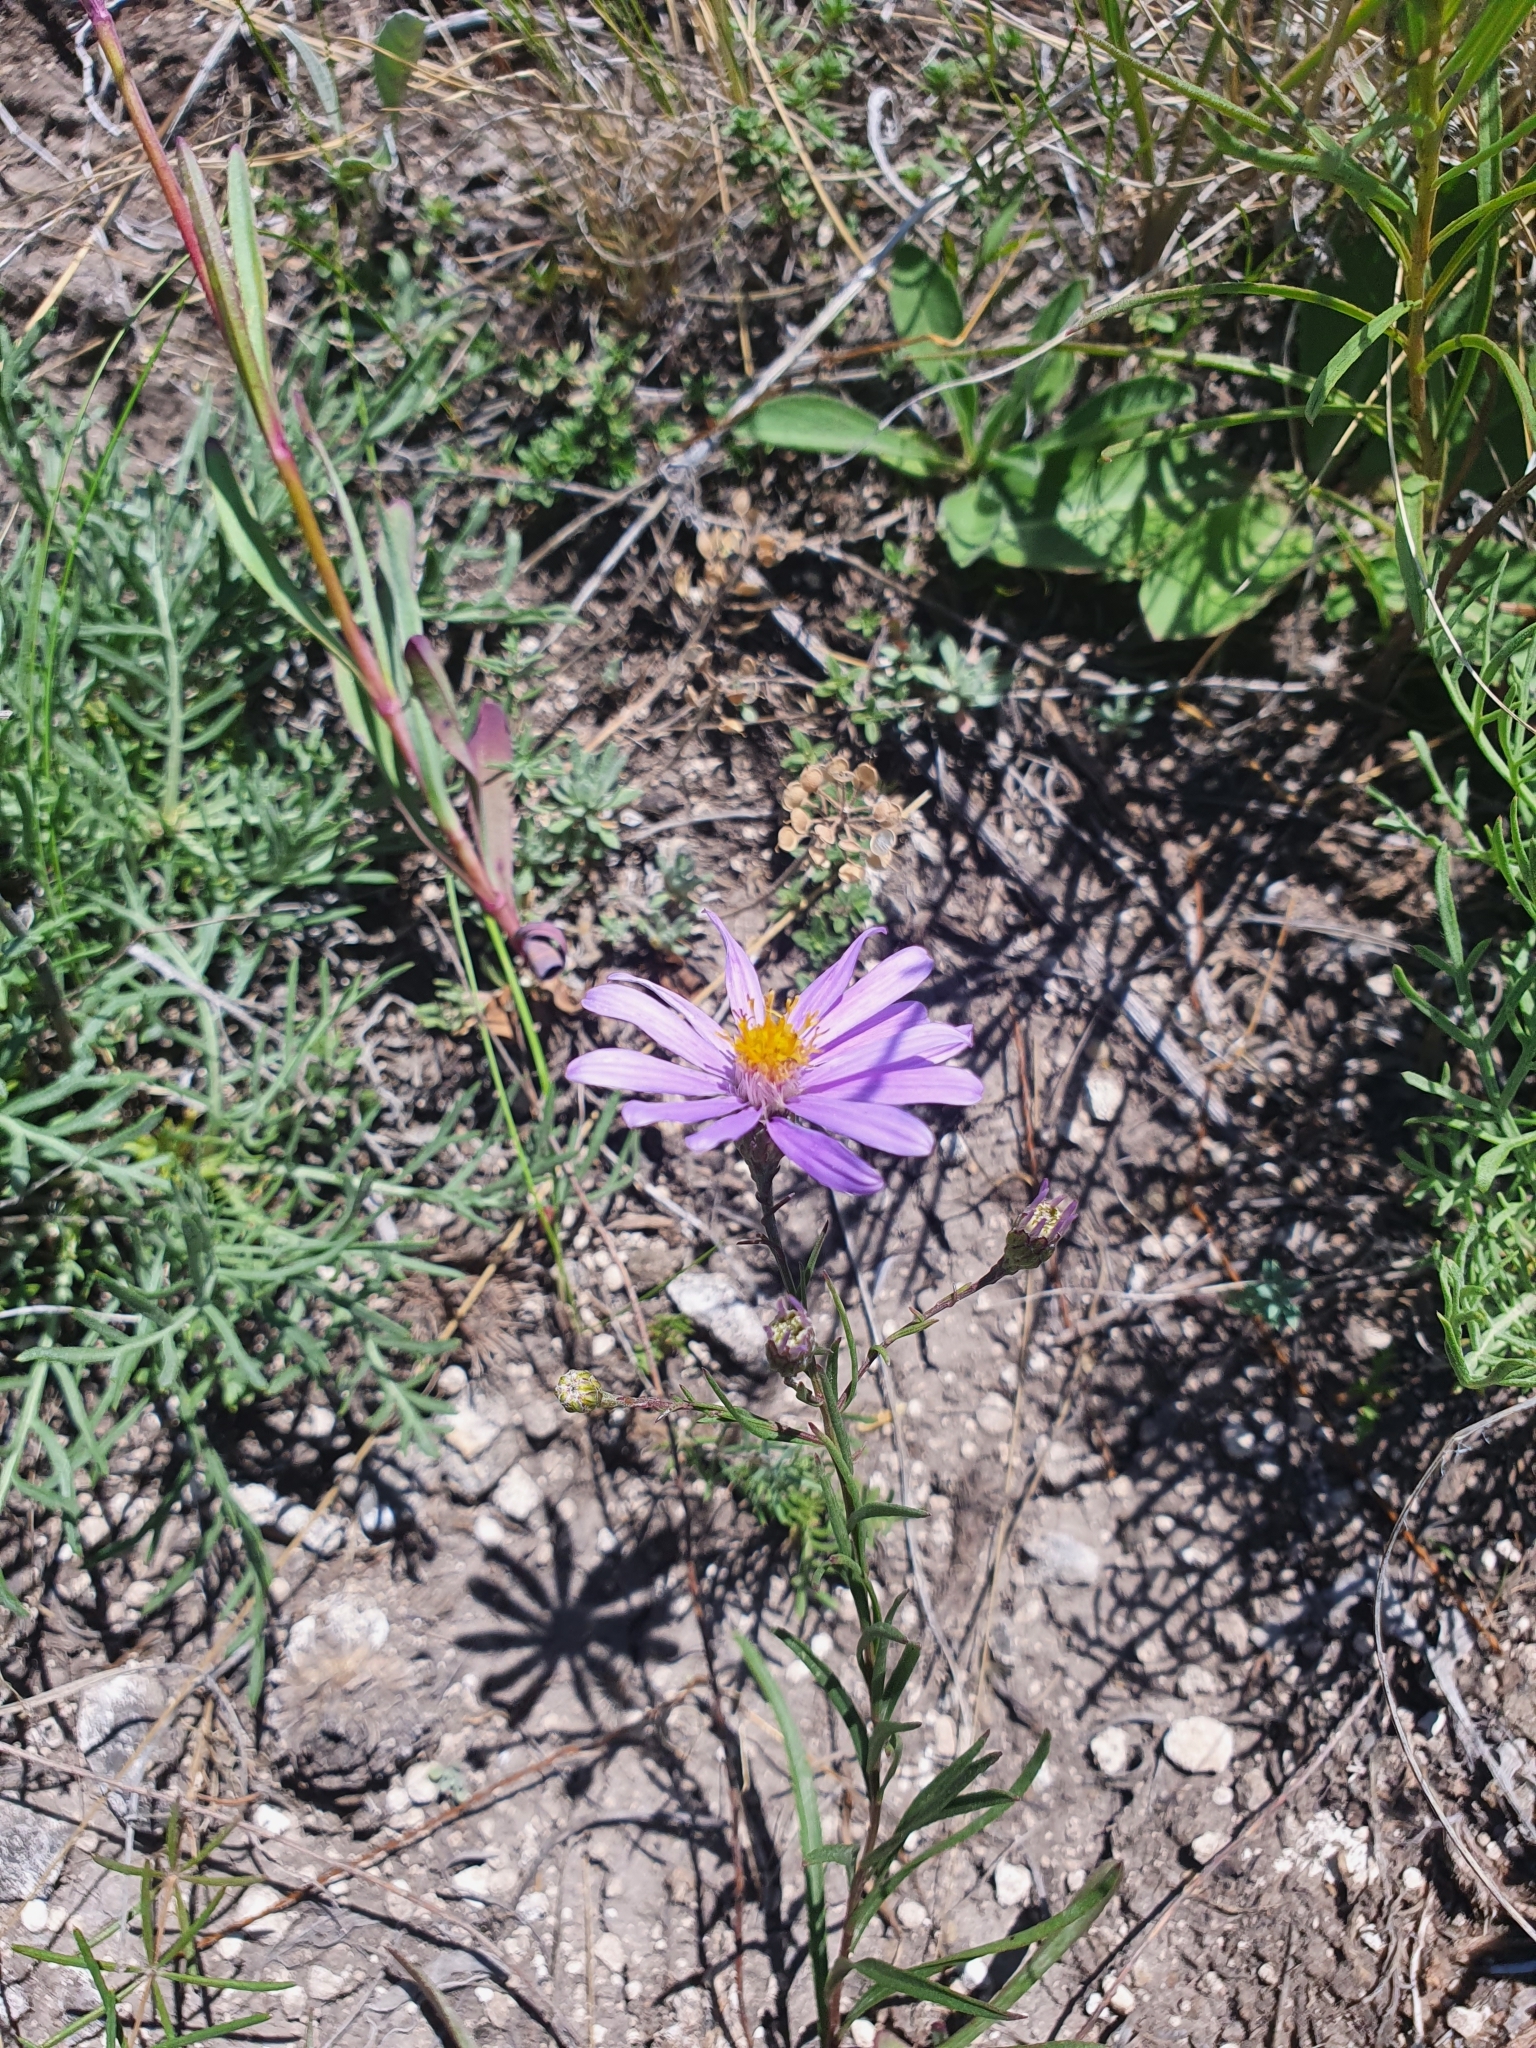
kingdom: Plantae
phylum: Tracheophyta
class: Magnoliopsida
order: Asterales
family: Asteraceae
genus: Galatella
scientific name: Galatella angustissima
